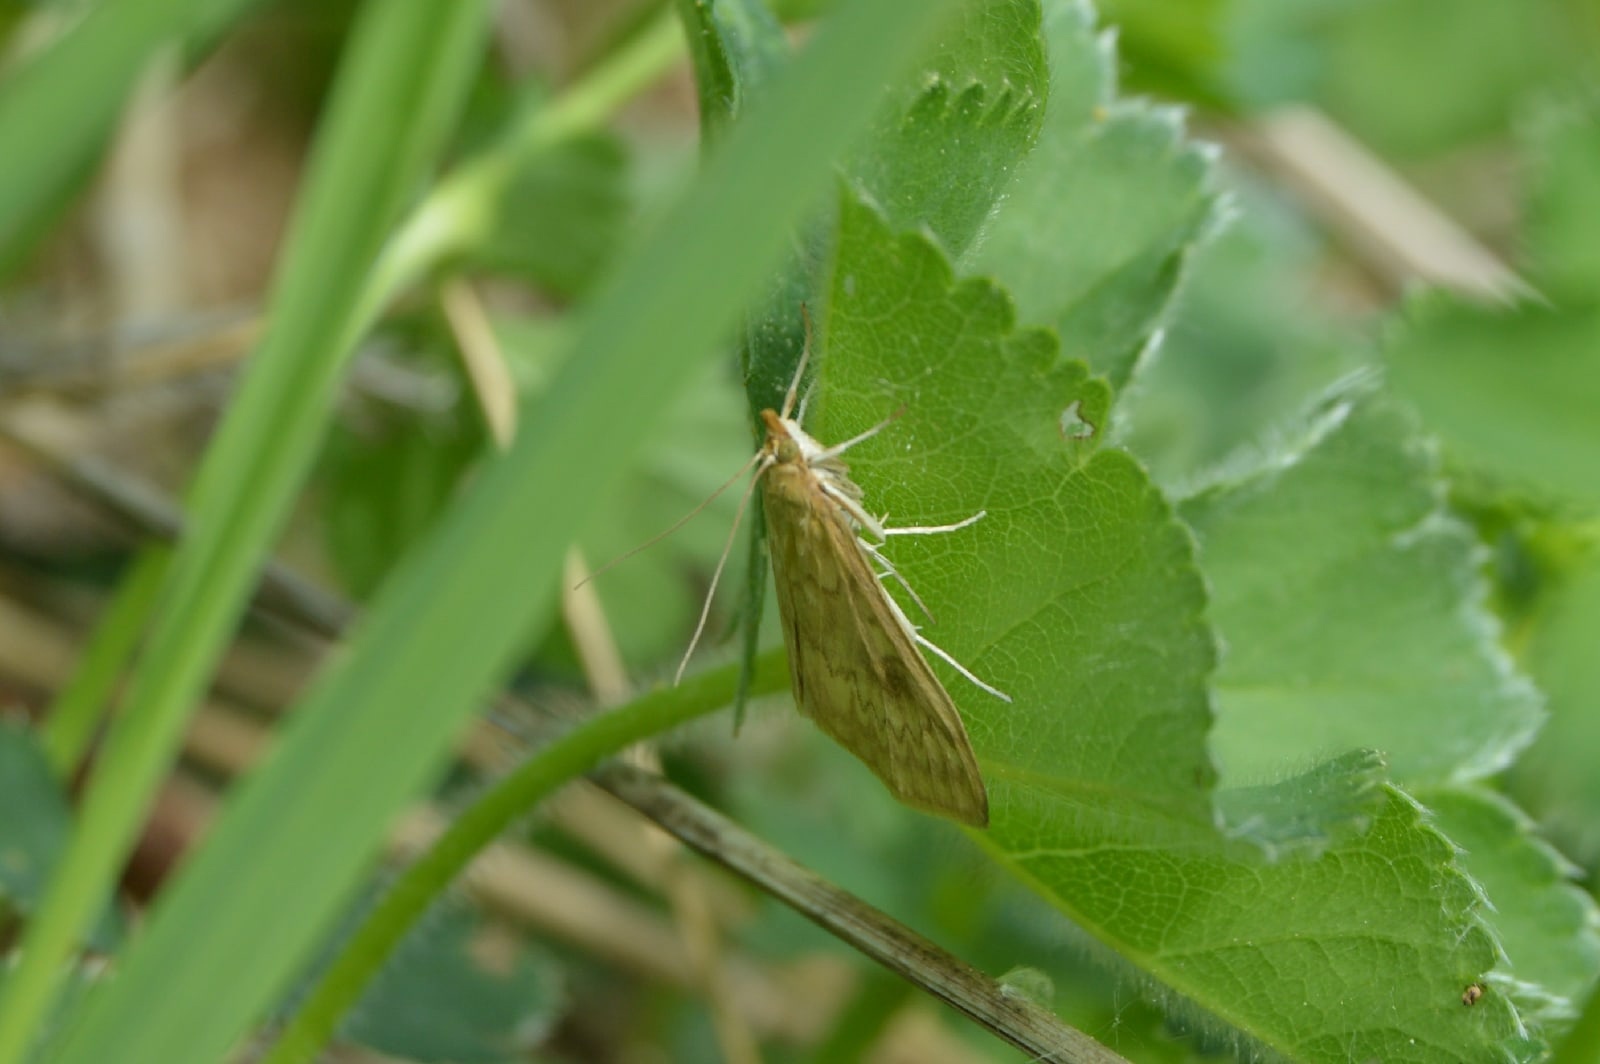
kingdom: Animalia
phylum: Arthropoda
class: Insecta
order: Lepidoptera
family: Crambidae
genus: Ostrinia
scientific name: Ostrinia nubilalis
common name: European corn borer
